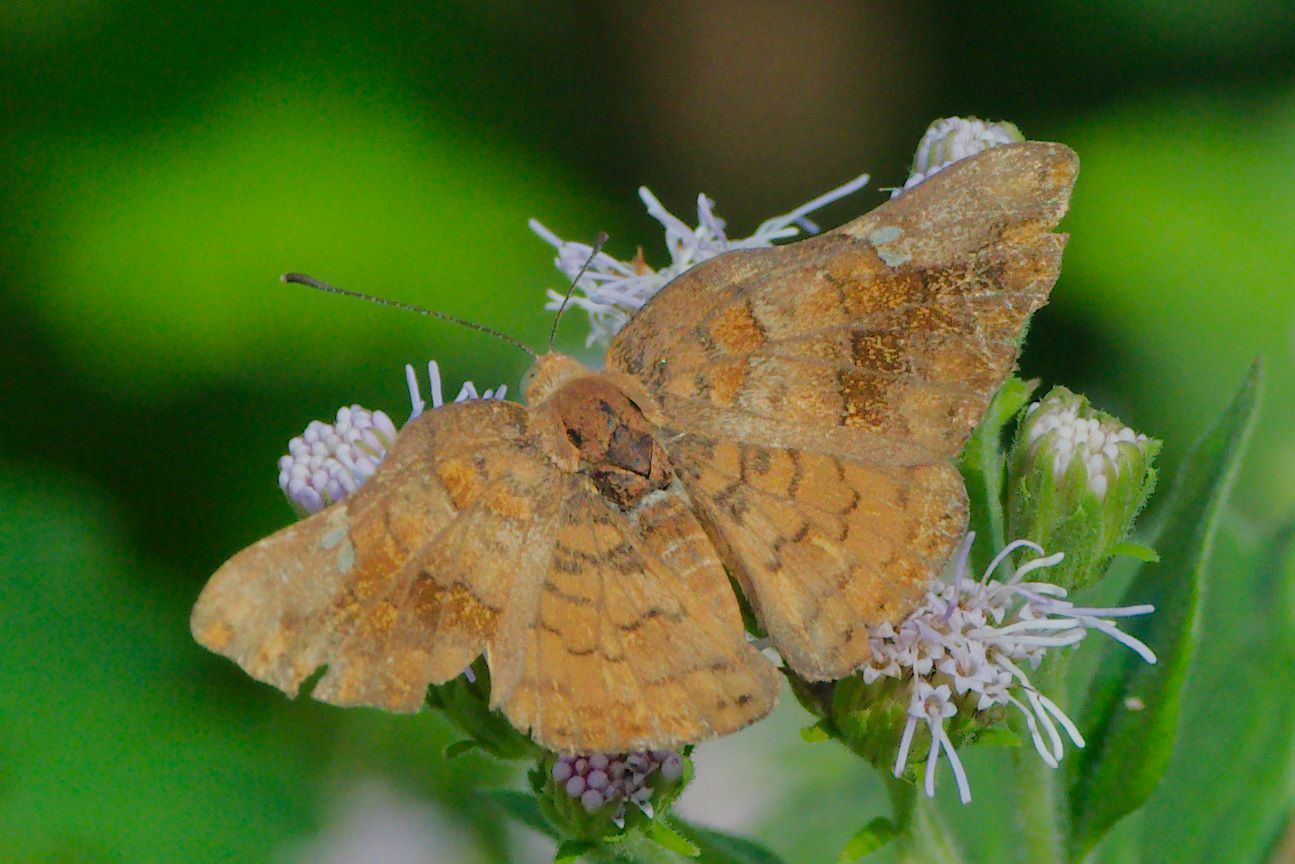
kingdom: Animalia
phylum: Arthropoda
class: Insecta
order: Lepidoptera
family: Riodinidae
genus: Curvie
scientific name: Curvie emesia
